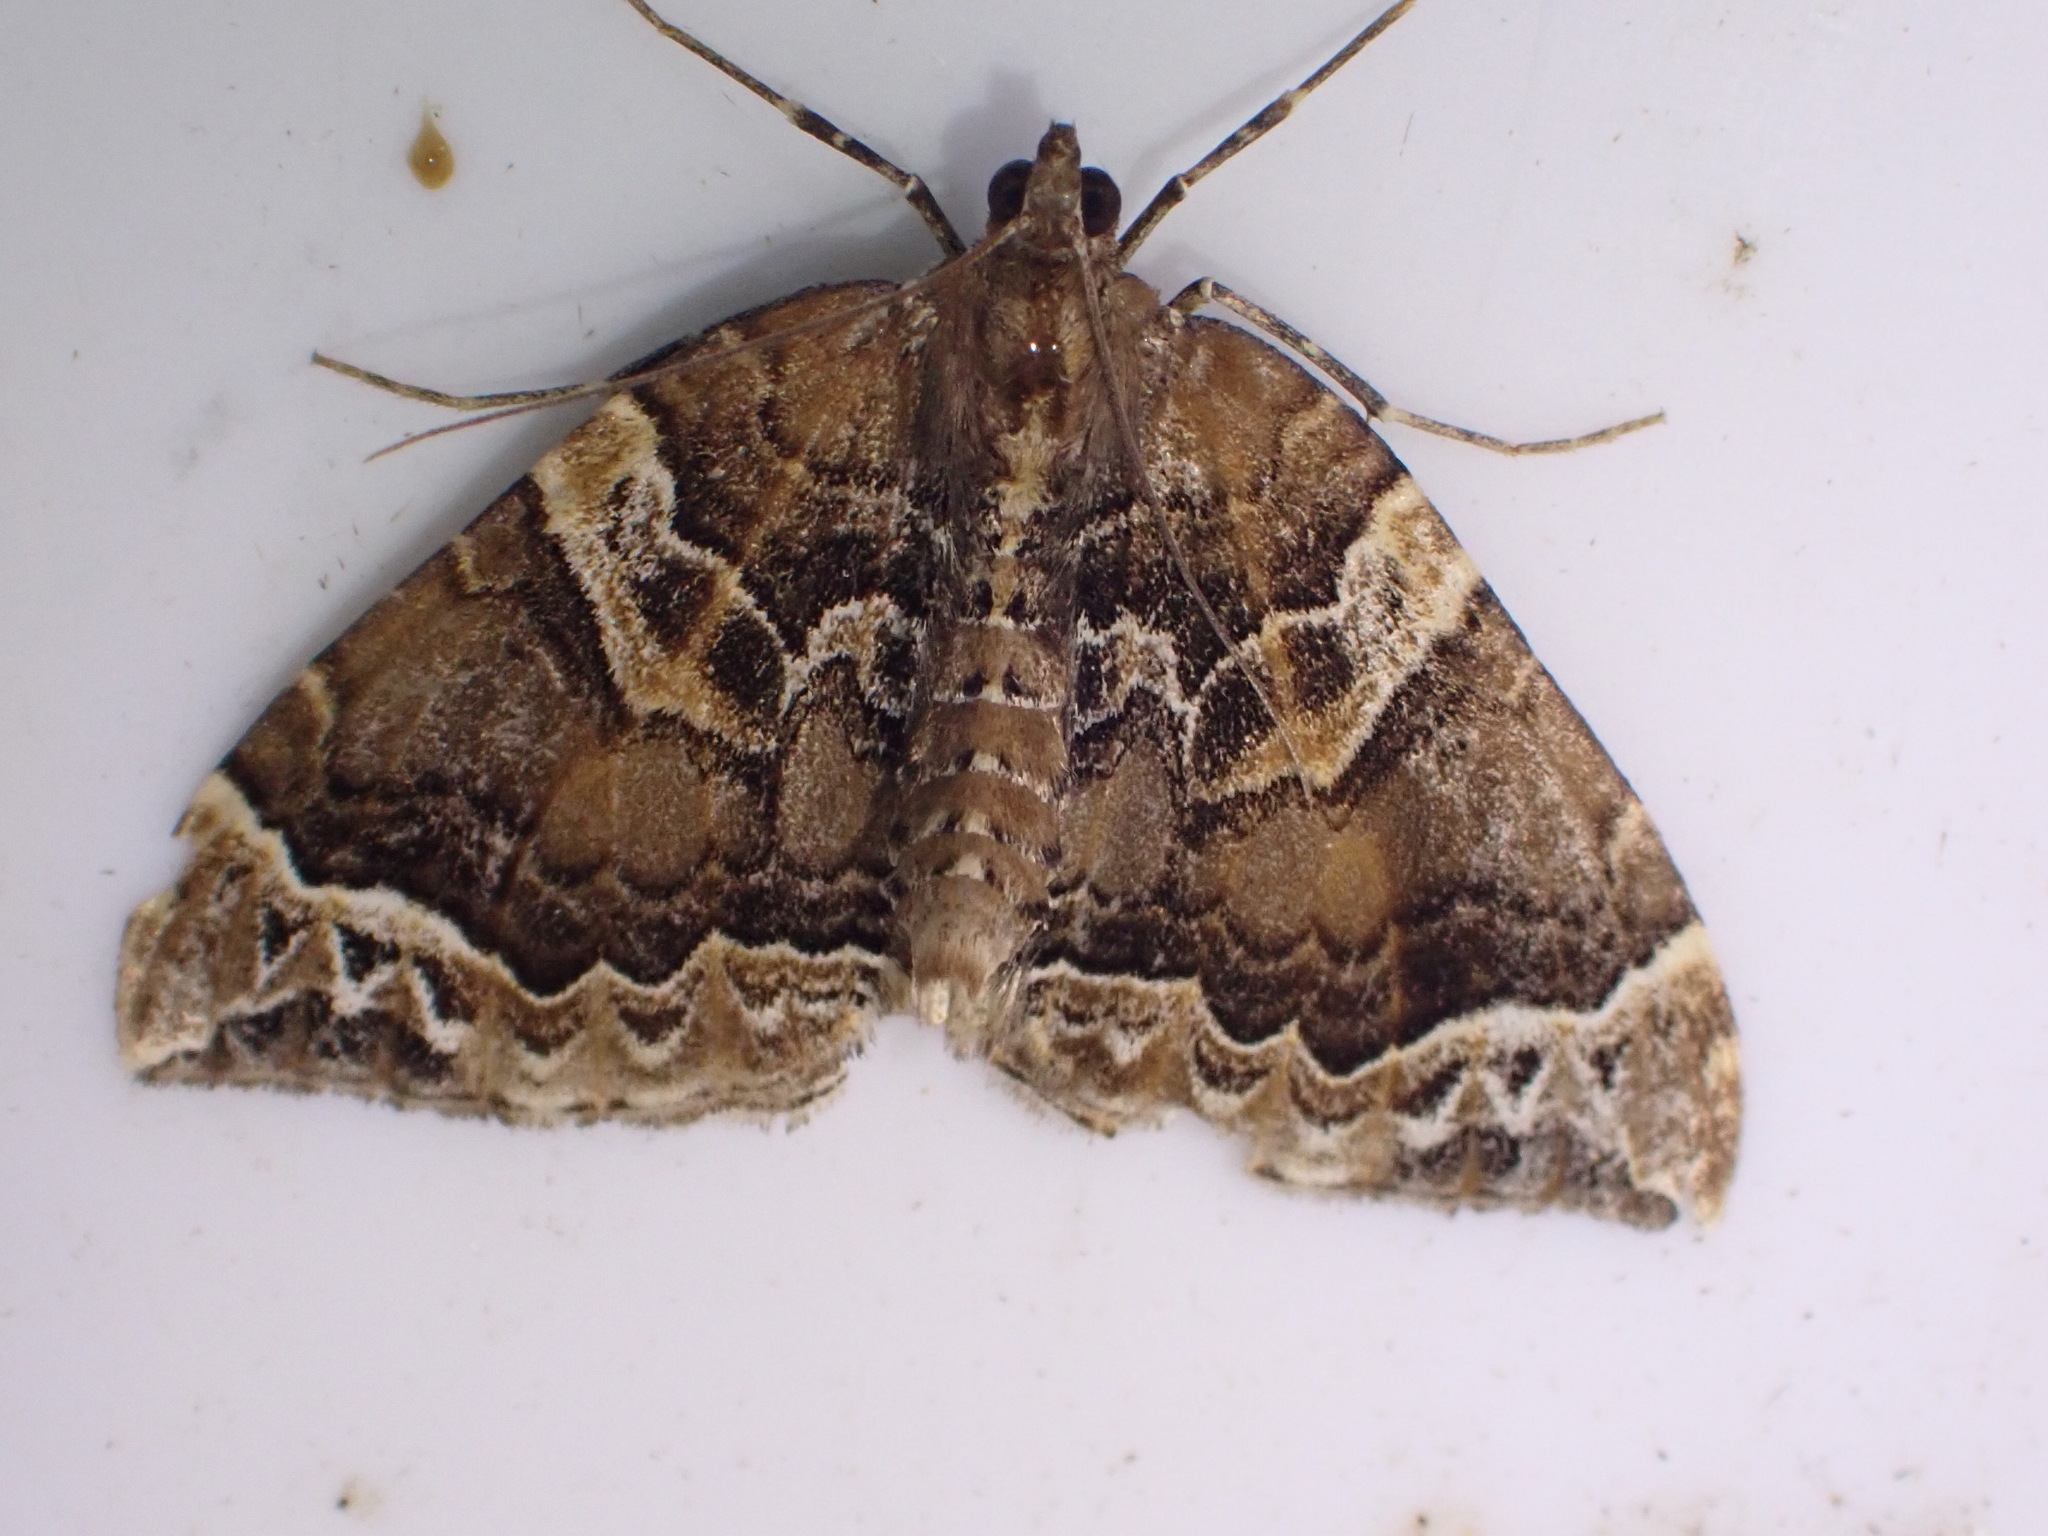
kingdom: Animalia
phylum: Arthropoda
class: Insecta
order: Lepidoptera
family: Geometridae
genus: Eulithis
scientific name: Eulithis prunata
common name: Phoenix
